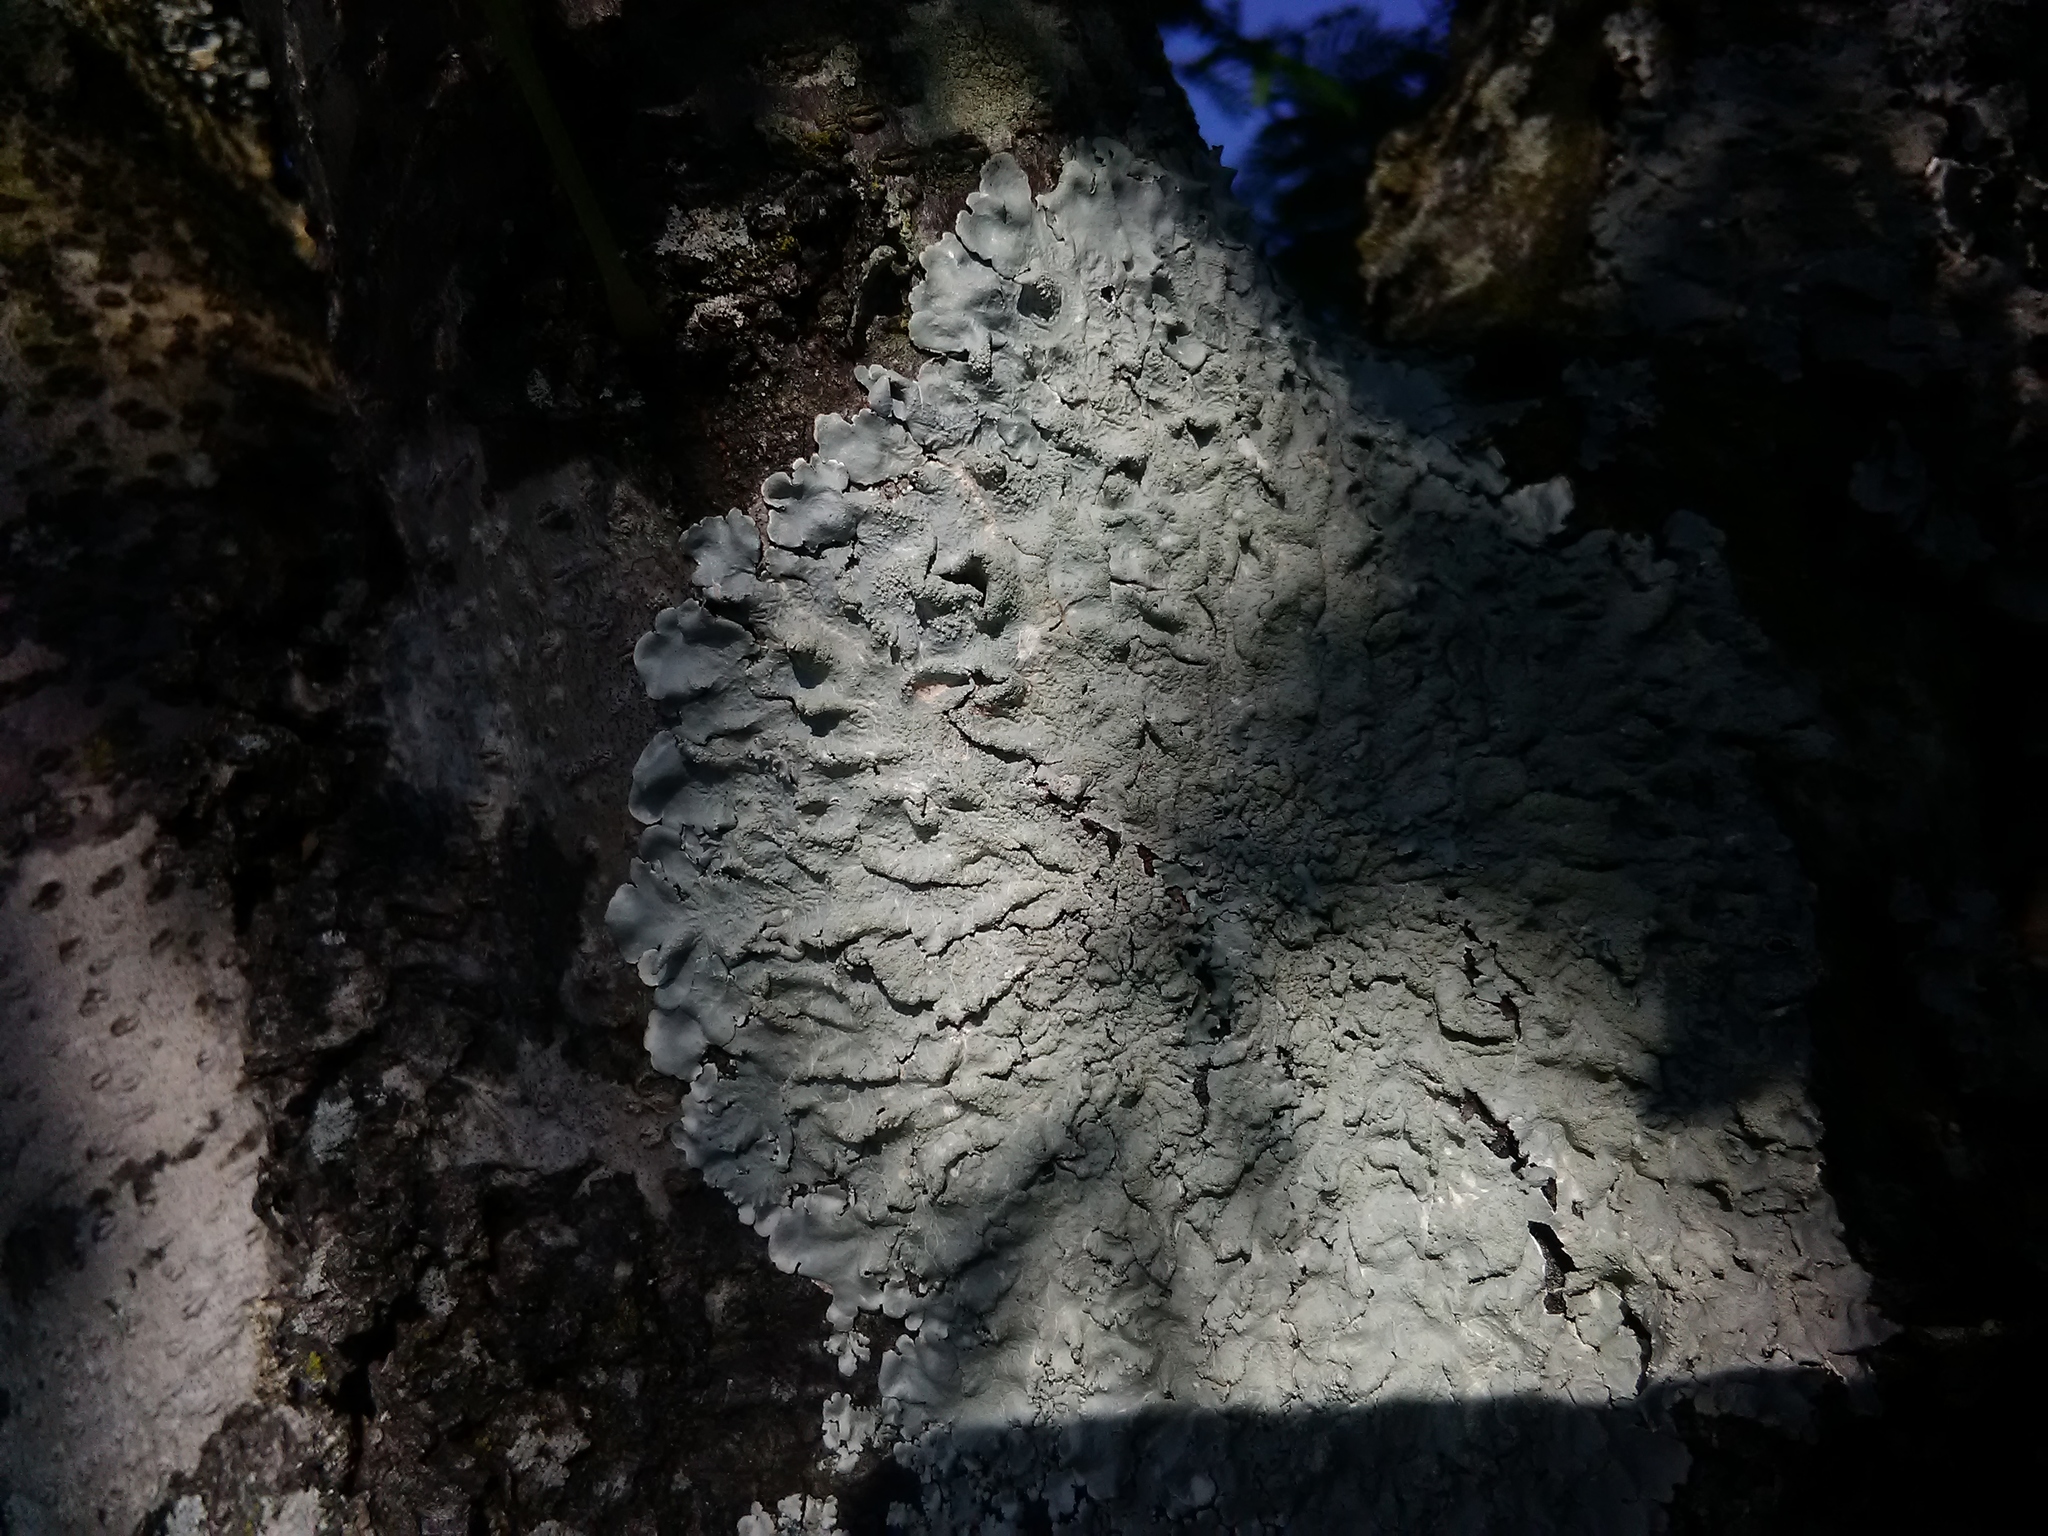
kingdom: Fungi
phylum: Ascomycota
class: Lecanoromycetes
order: Lecanorales
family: Parmeliaceae
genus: Canoparmelia
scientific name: Canoparmelia texana
